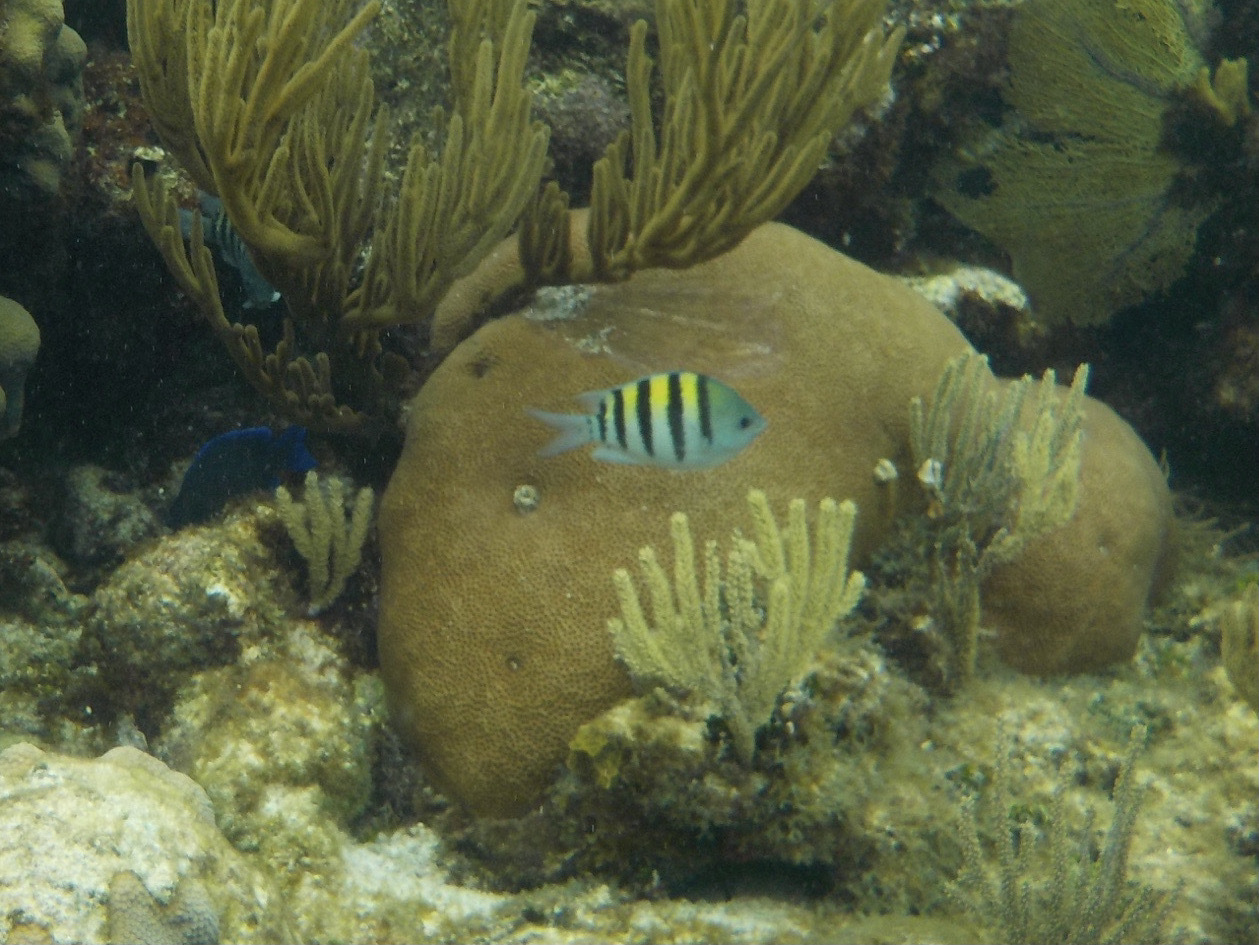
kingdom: Animalia
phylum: Cnidaria
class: Anthozoa
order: Scleractinia
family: Rhizangiidae
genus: Siderastrea
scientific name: Siderastrea siderea
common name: Massive starlet coral
